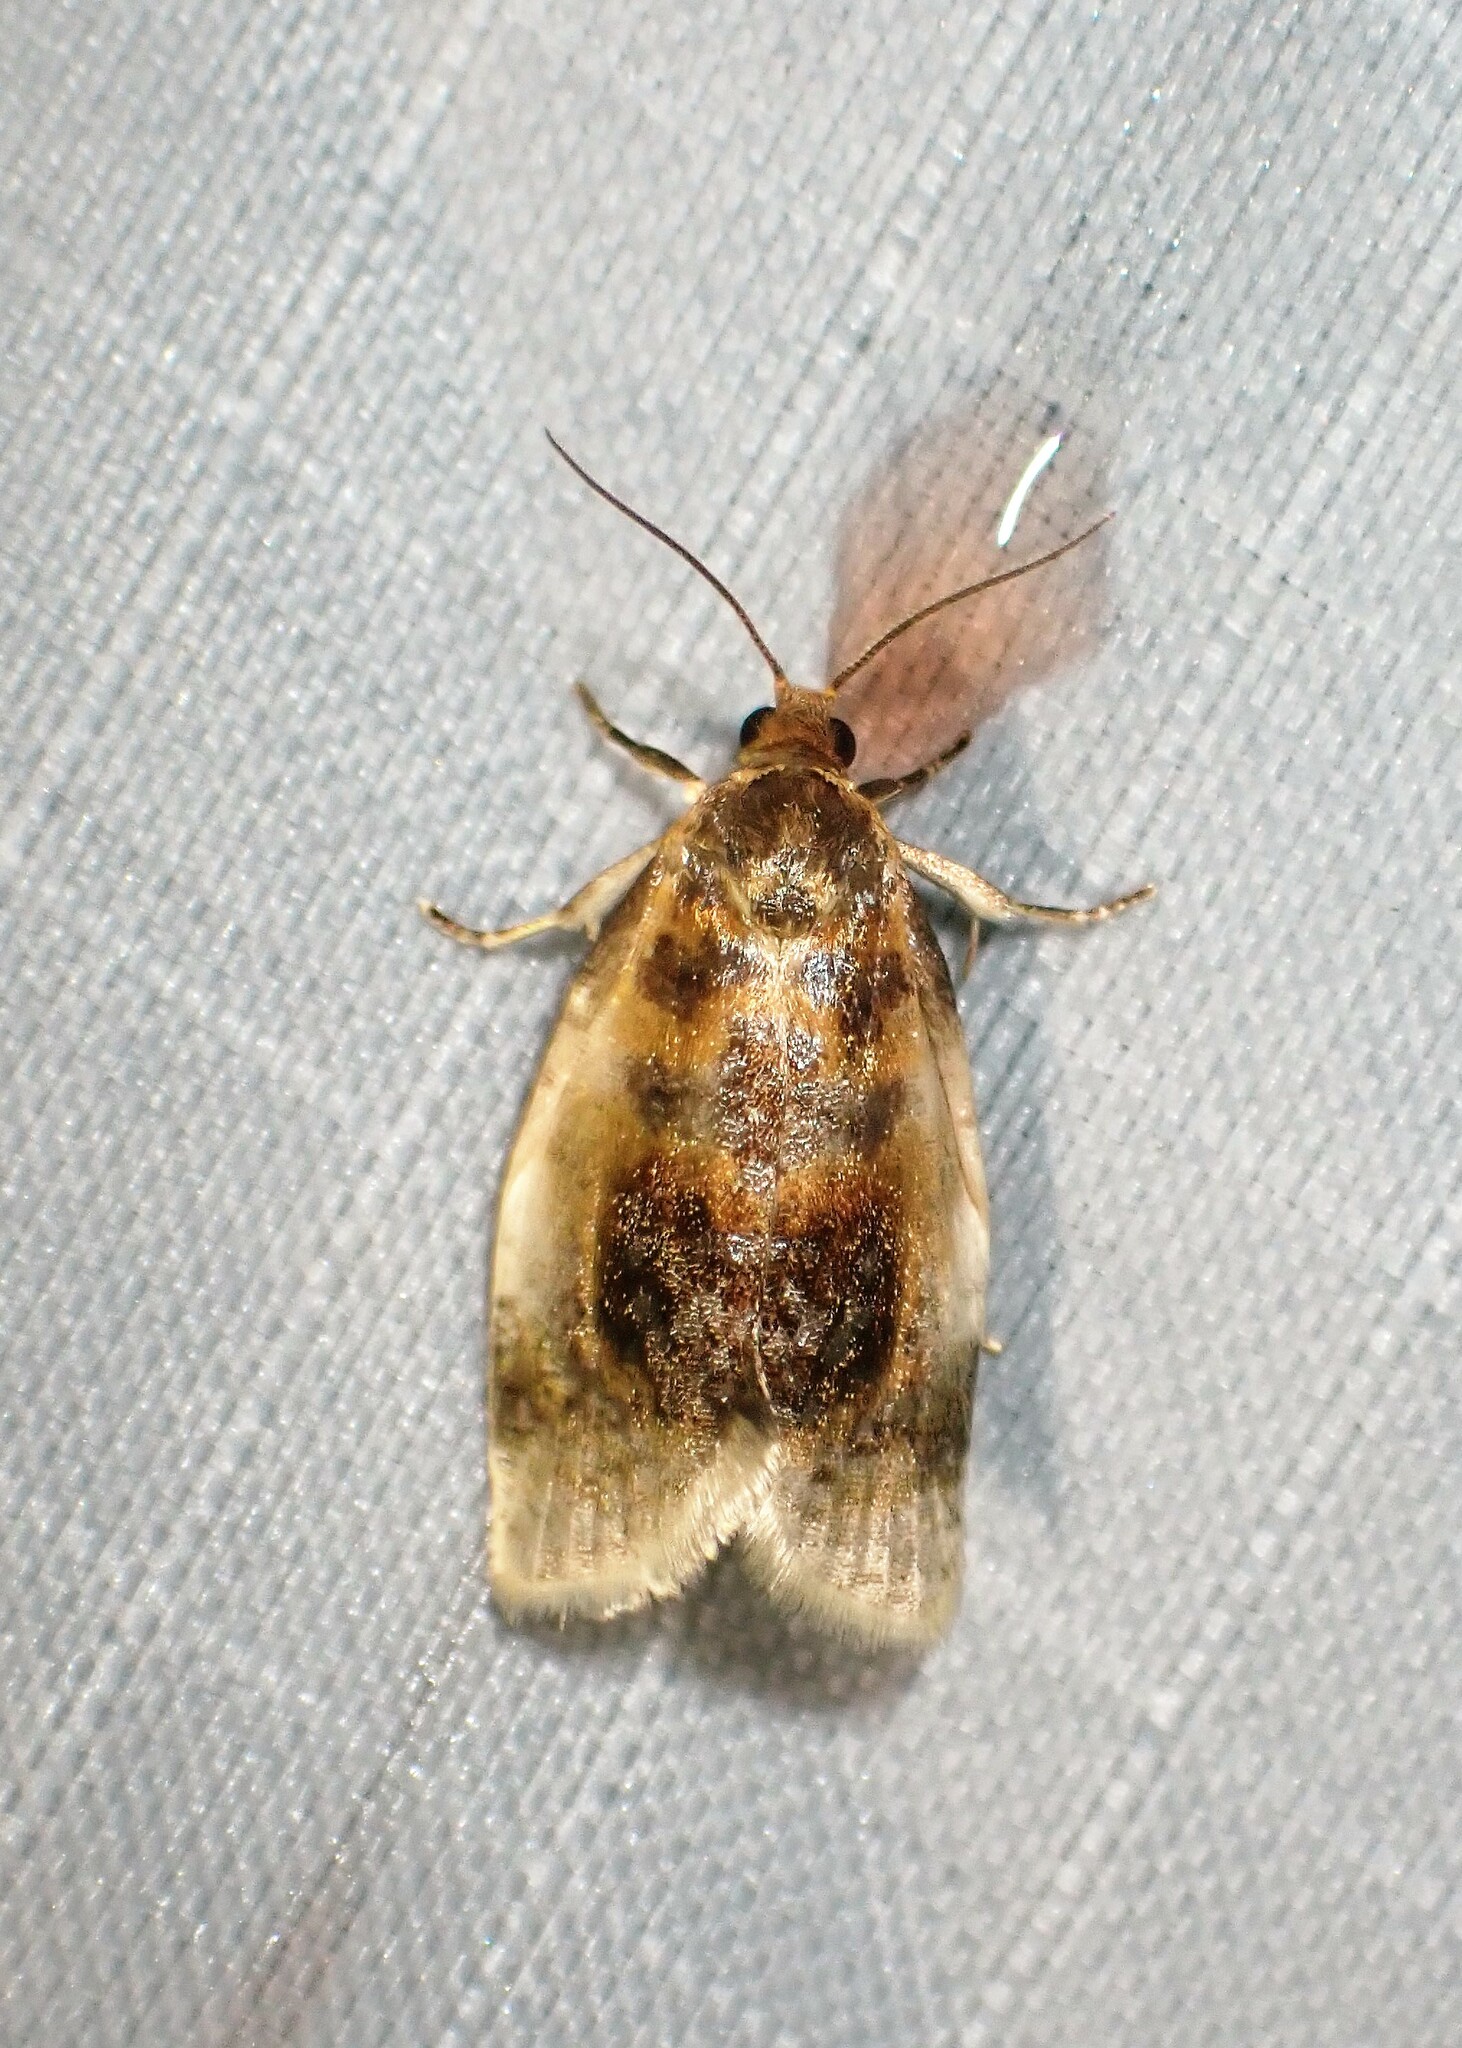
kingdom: Animalia
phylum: Arthropoda
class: Insecta
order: Lepidoptera
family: Tortricidae
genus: Clepsis
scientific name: Clepsis melaleucanus
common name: American apple tortrix
